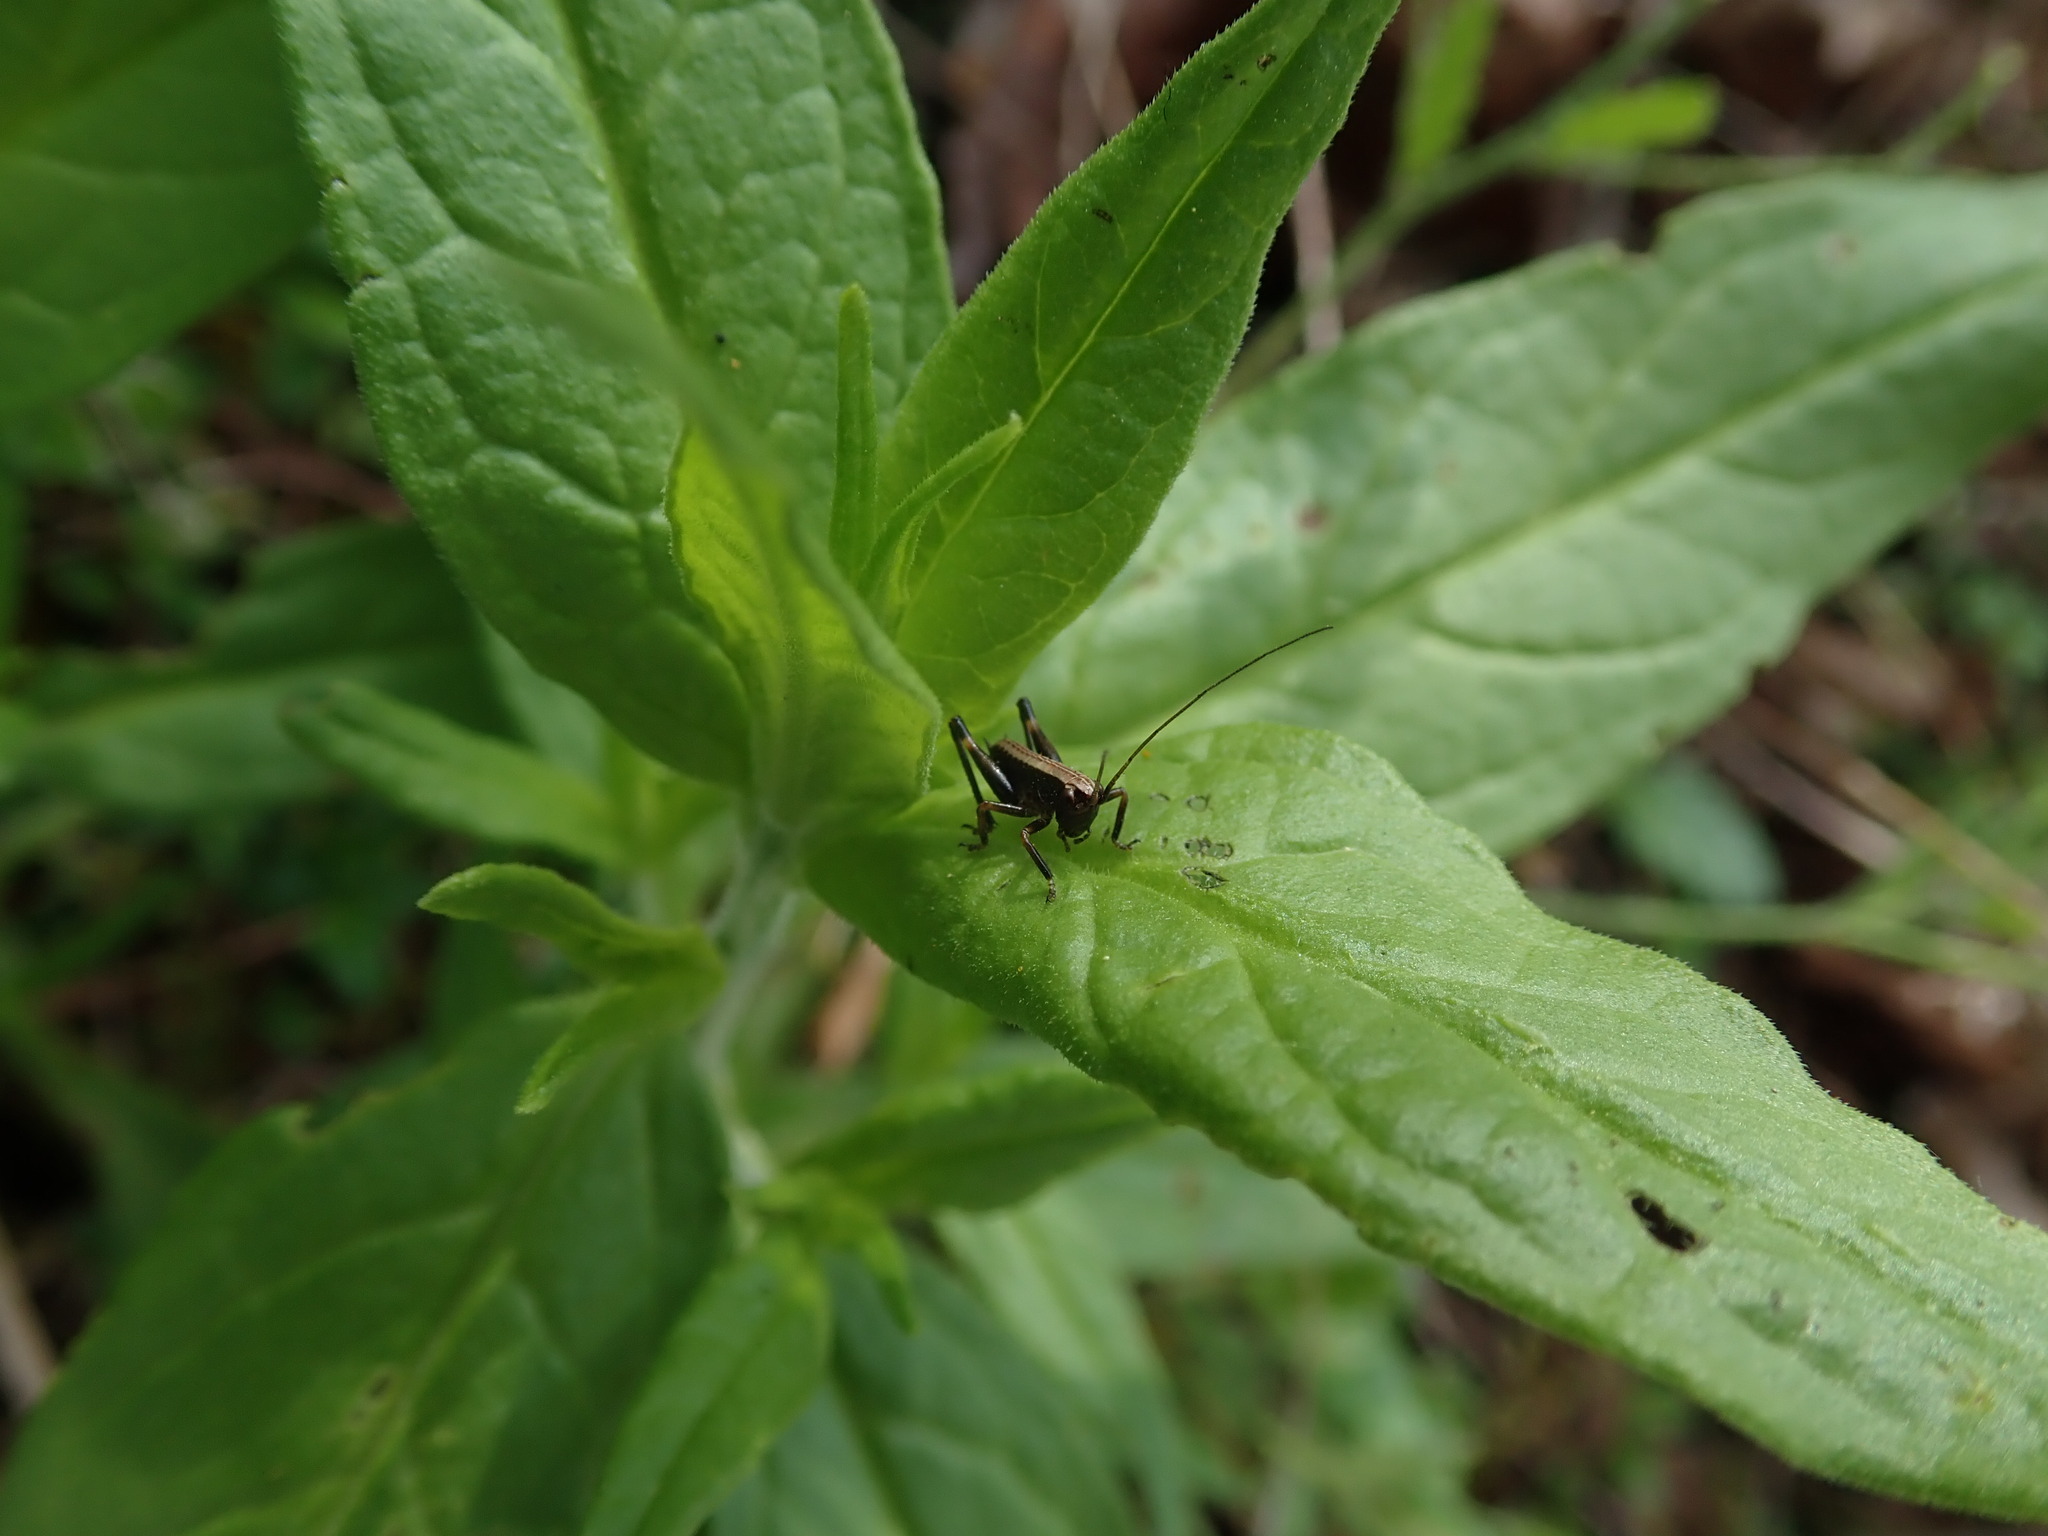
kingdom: Animalia
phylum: Arthropoda
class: Insecta
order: Orthoptera
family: Tettigoniidae
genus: Pholidoptera
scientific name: Pholidoptera griseoaptera
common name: Dark bush-cricket
